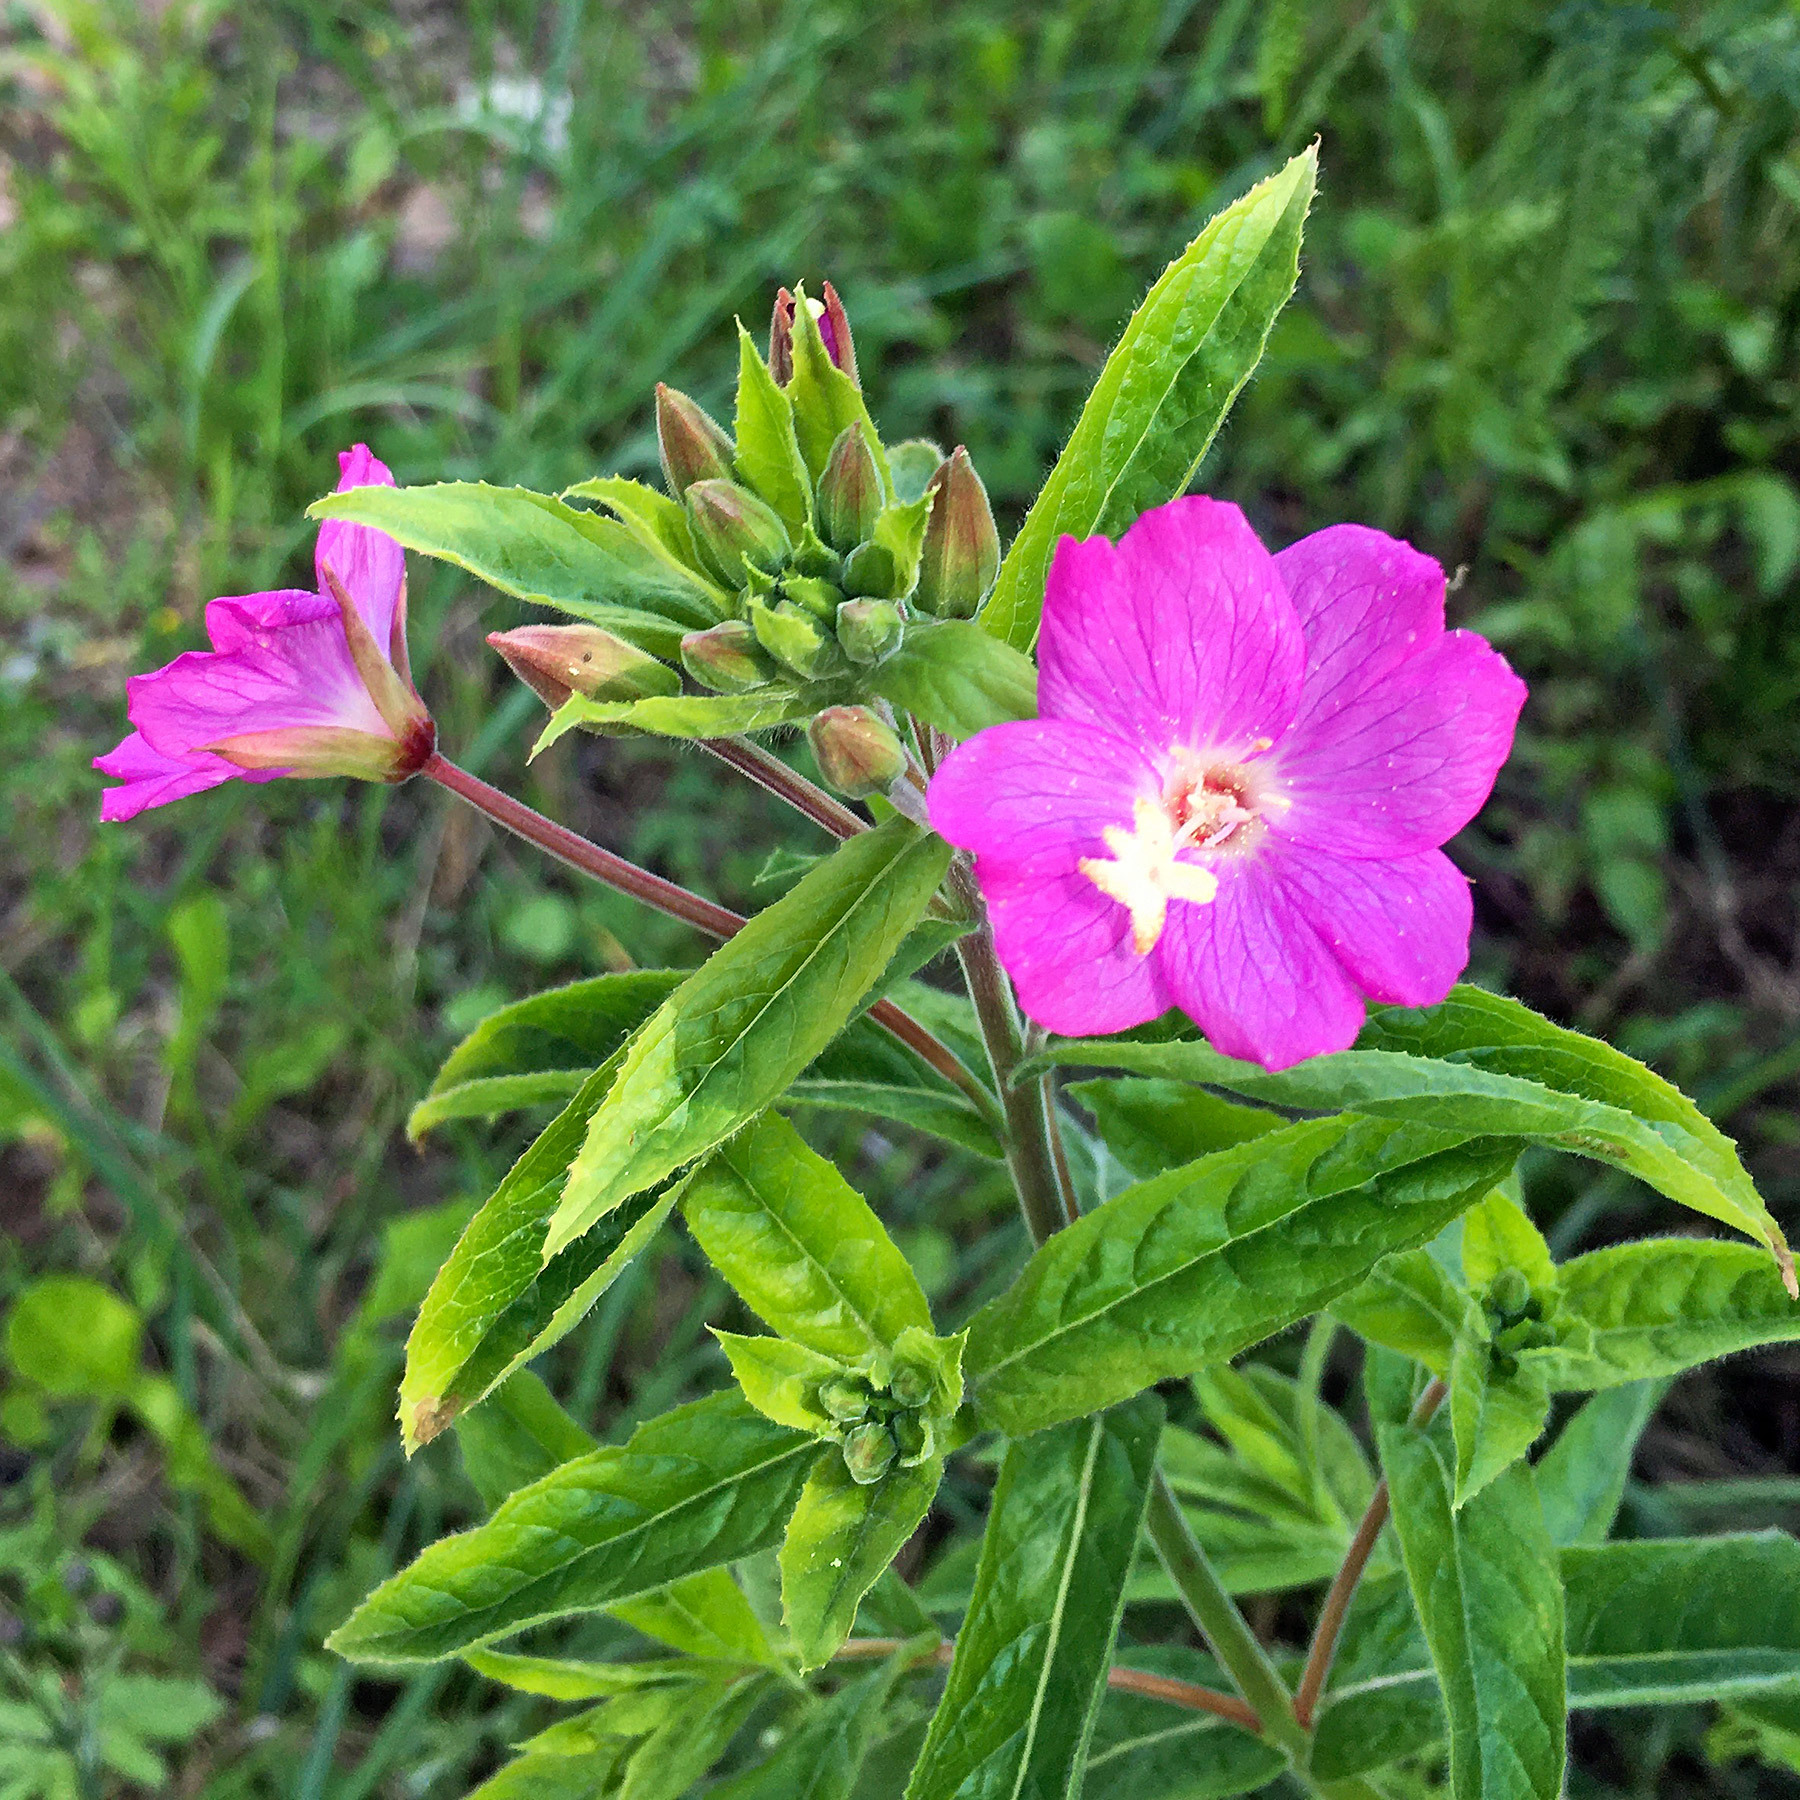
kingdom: Plantae
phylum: Tracheophyta
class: Magnoliopsida
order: Myrtales
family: Onagraceae
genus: Epilobium
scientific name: Epilobium hirsutum
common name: Great willowherb
